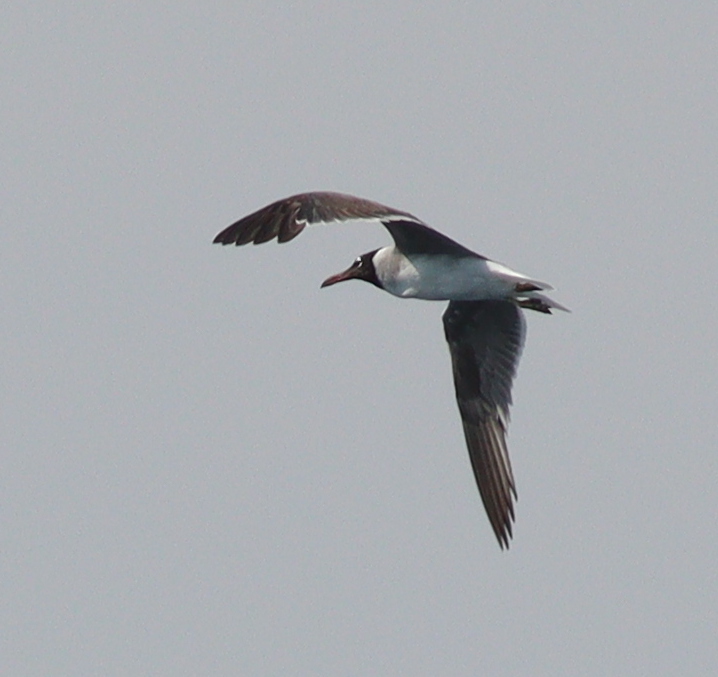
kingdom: Animalia
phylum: Chordata
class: Aves
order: Charadriiformes
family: Laridae
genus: Ichthyaetus
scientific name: Ichthyaetus leucophthalmus
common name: White-eyed gull
